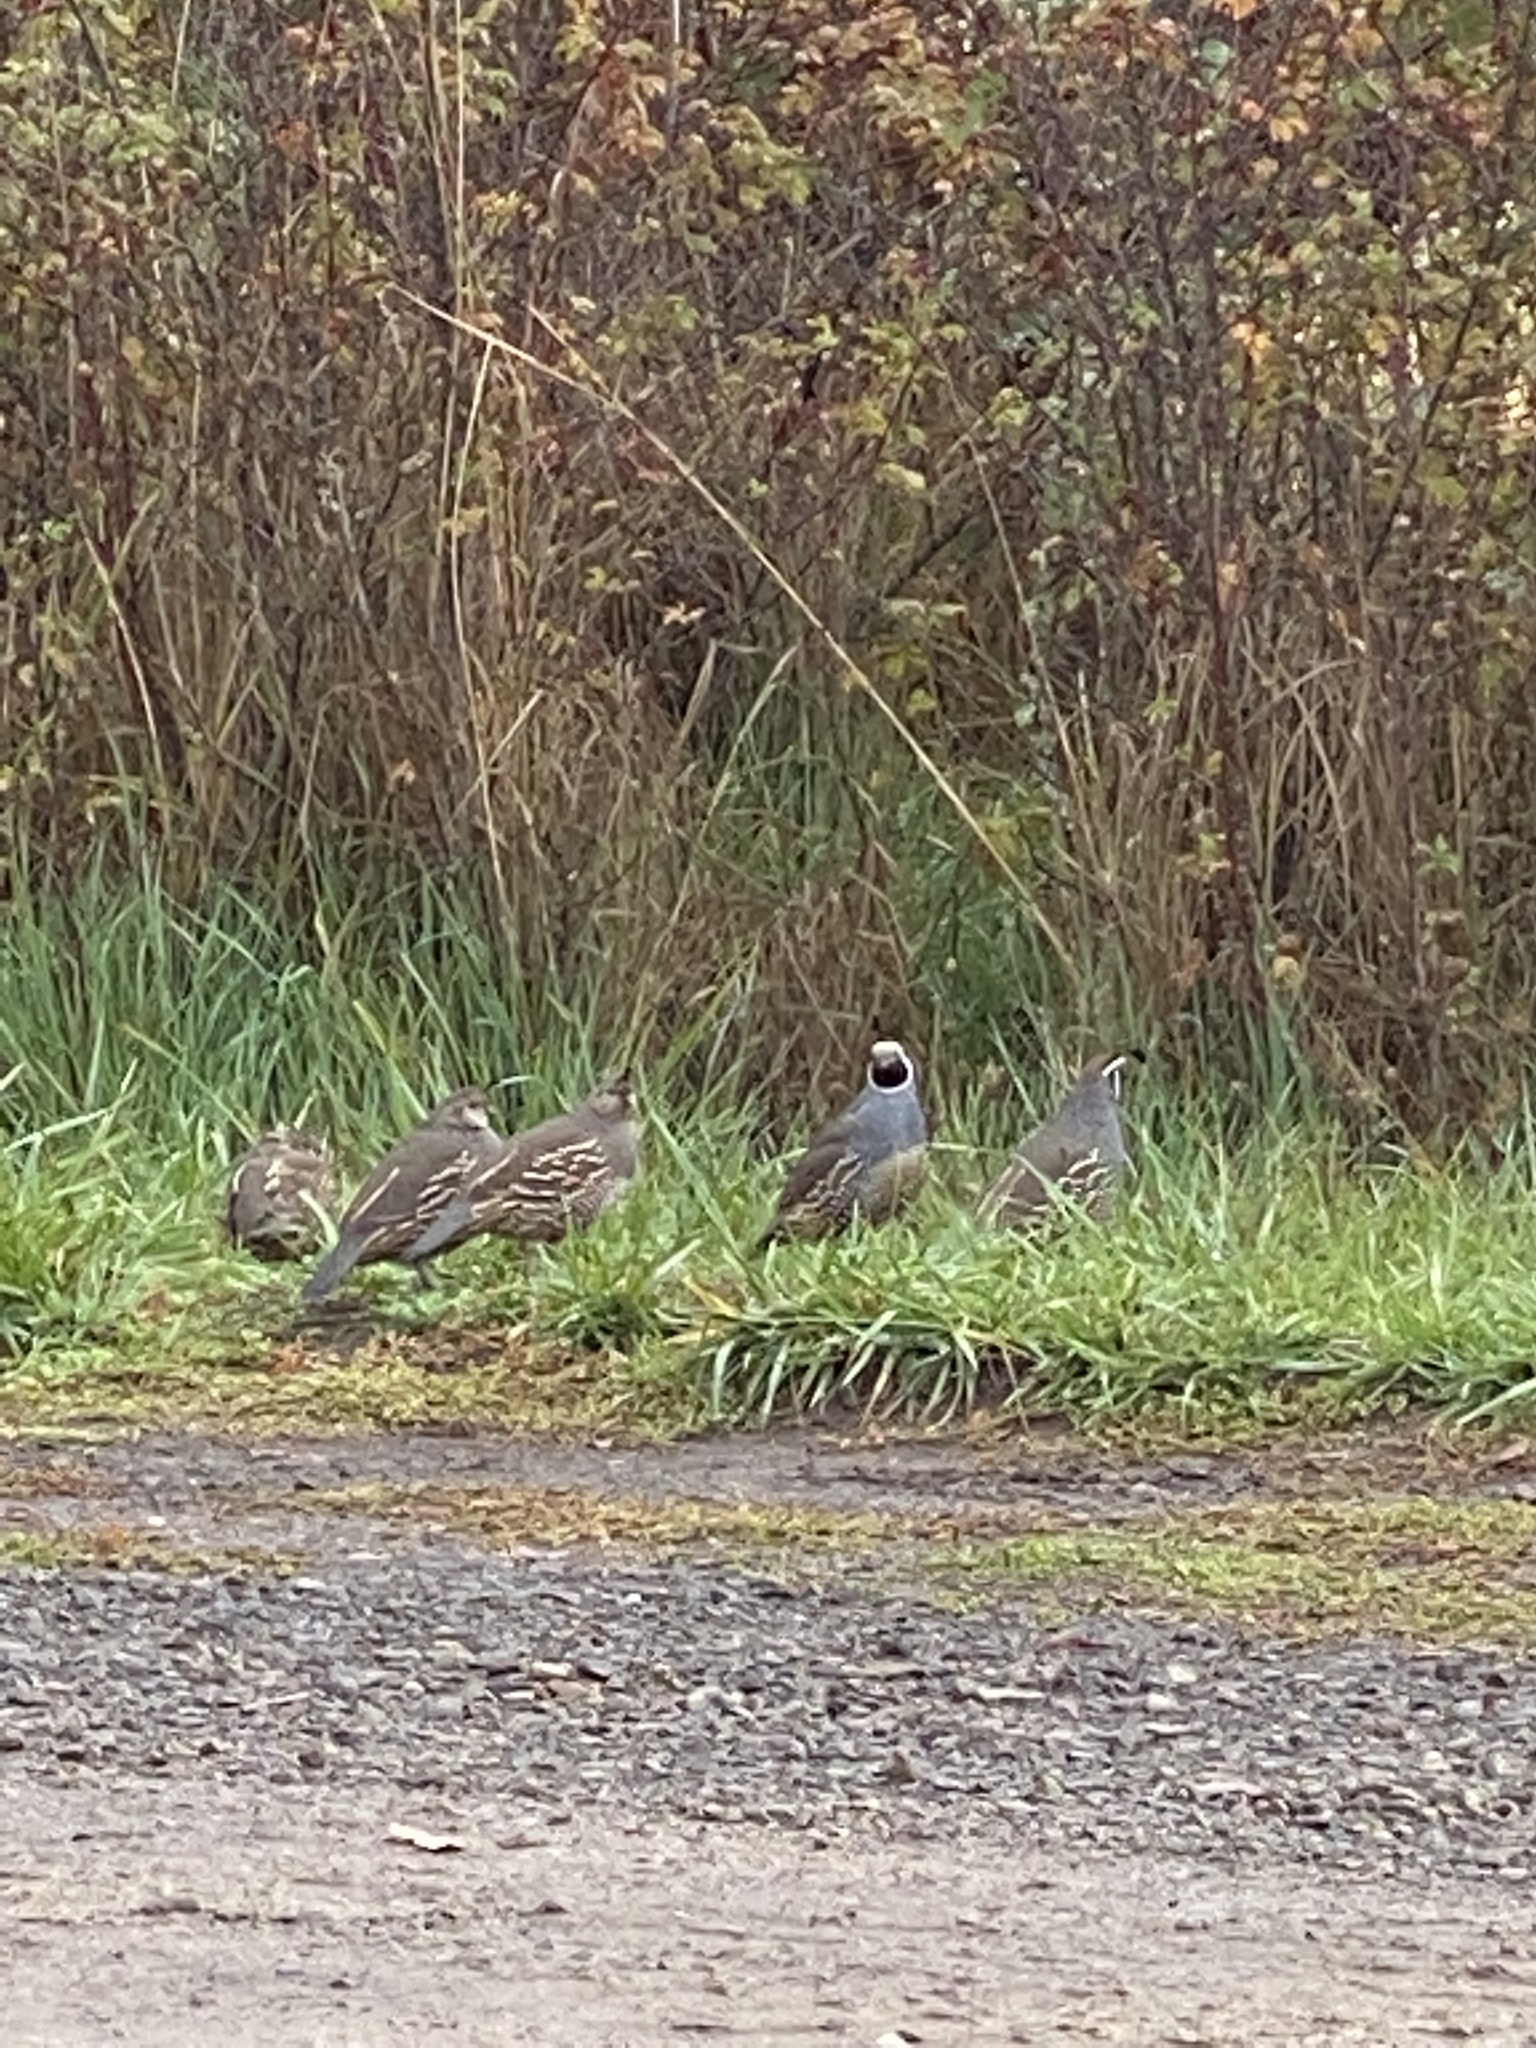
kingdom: Animalia
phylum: Chordata
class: Aves
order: Galliformes
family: Odontophoridae
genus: Callipepla
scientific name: Callipepla californica
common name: California quail
